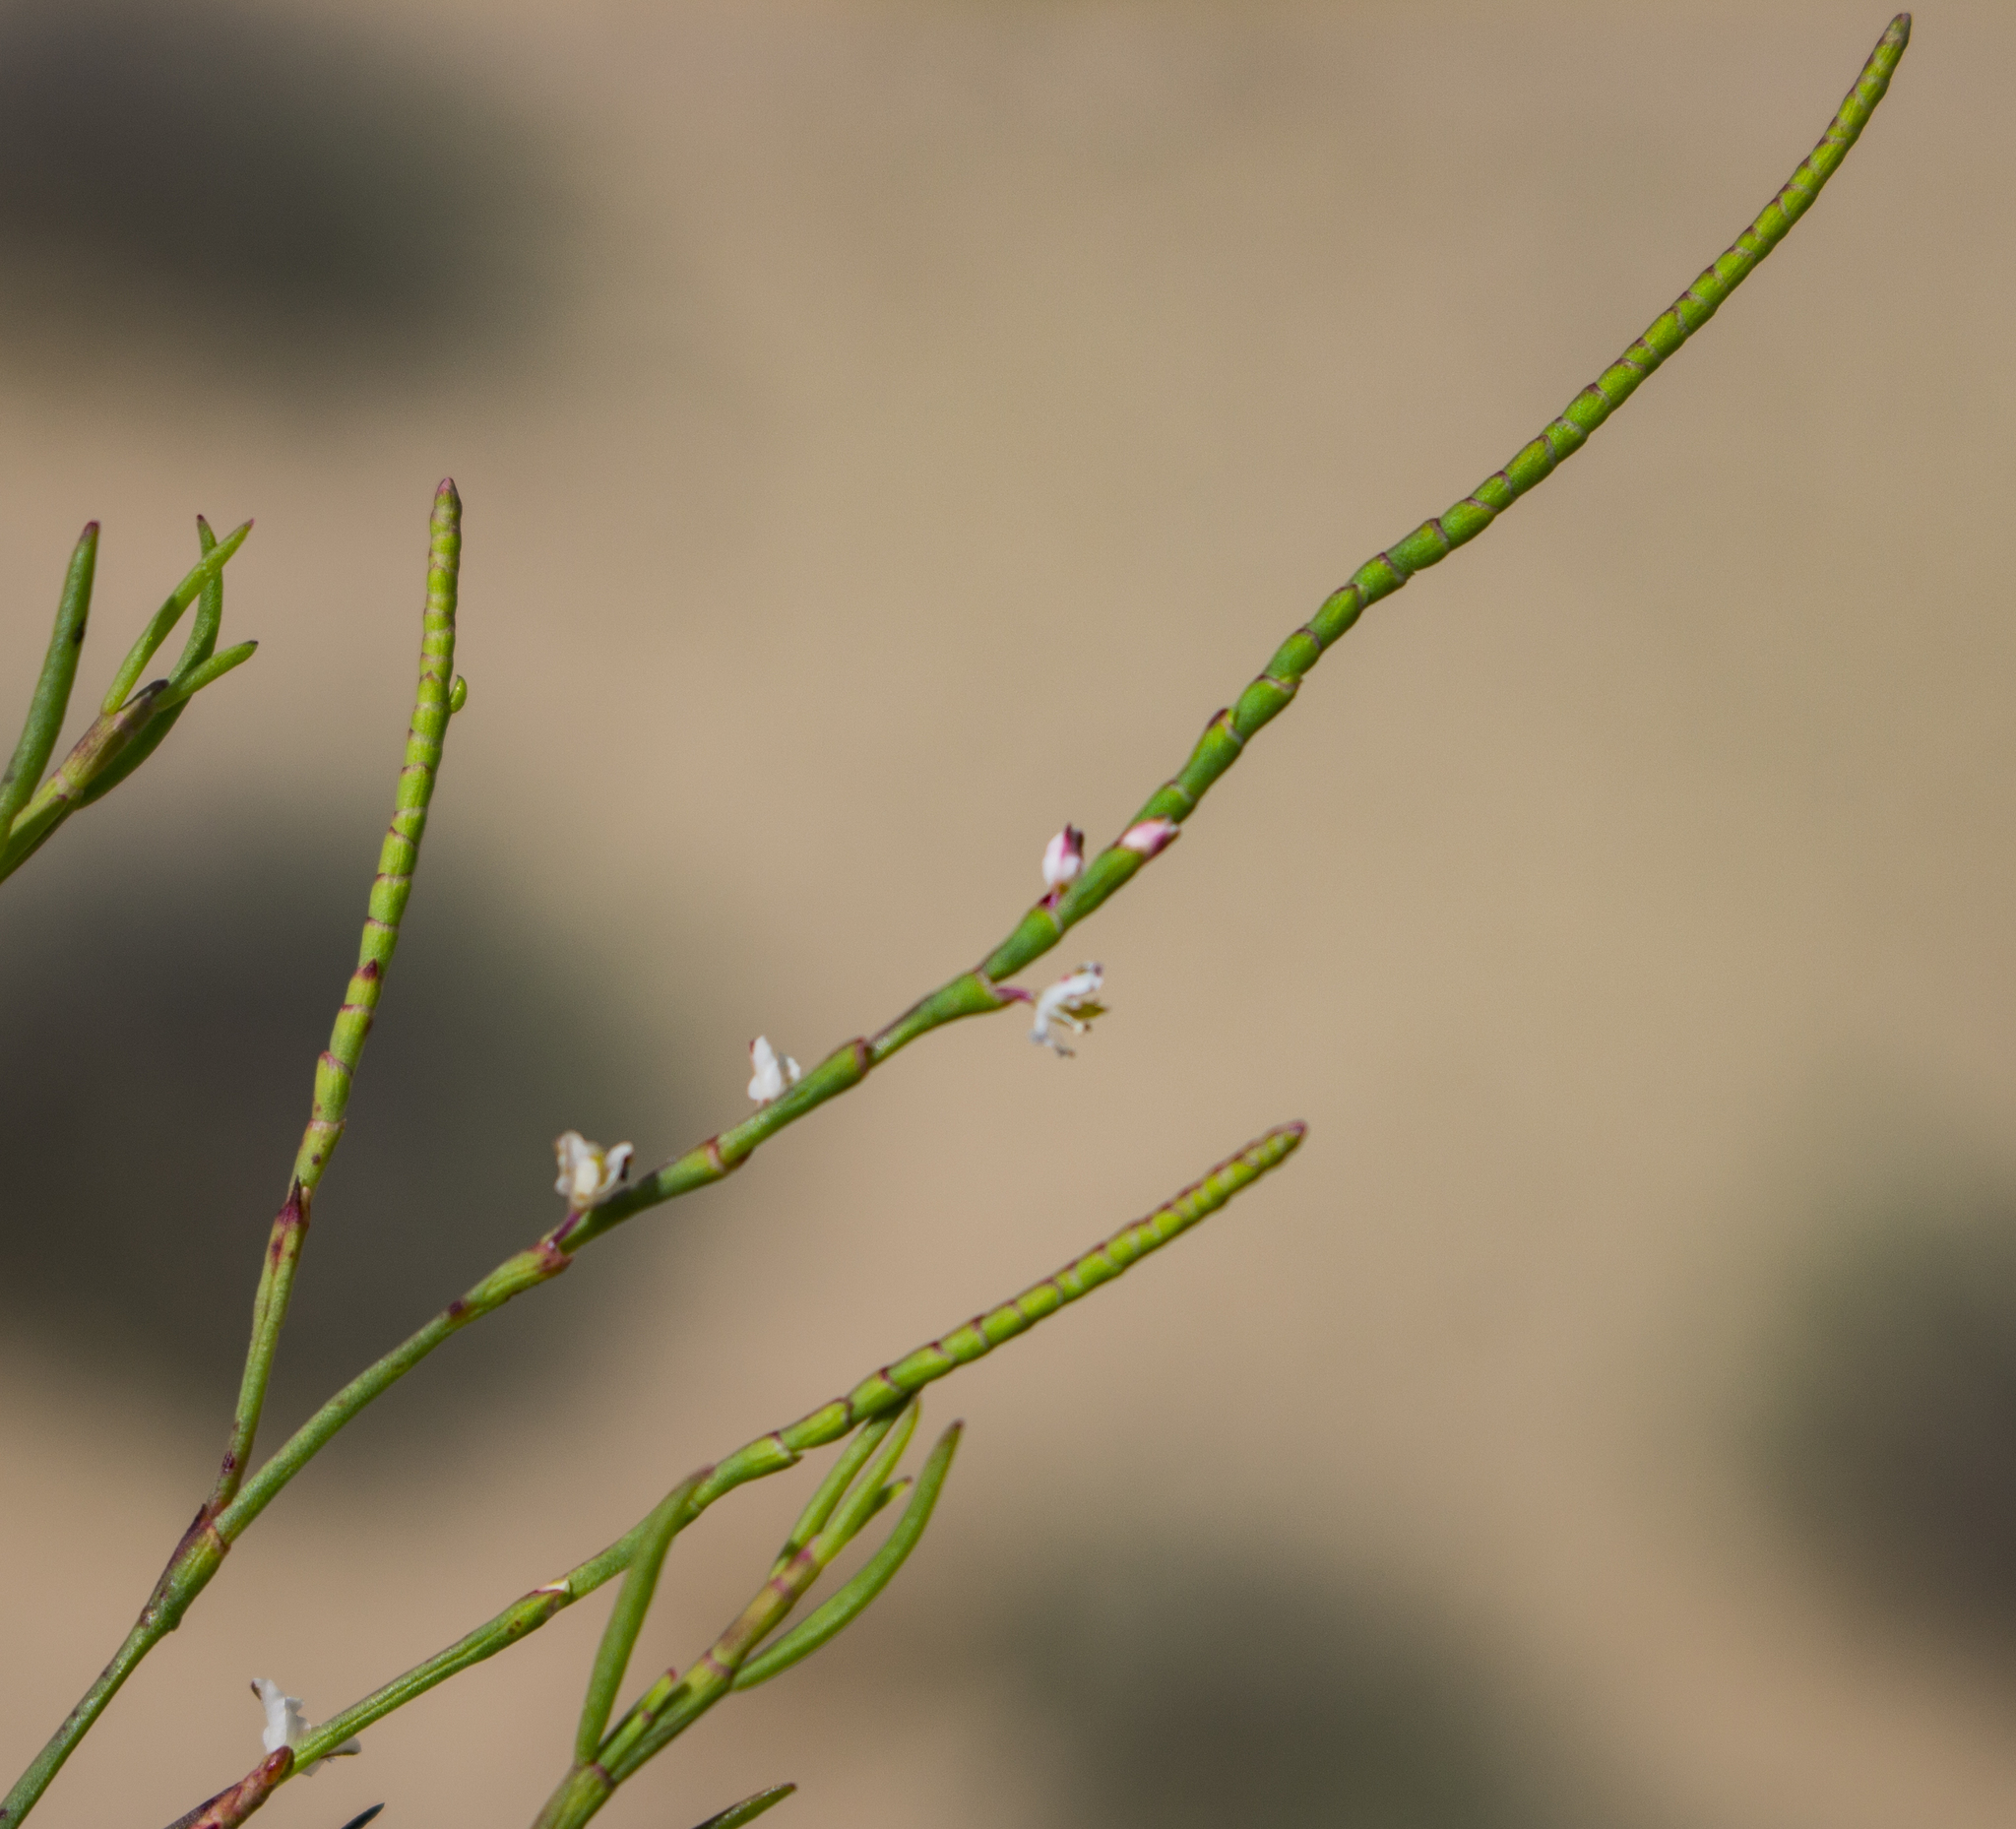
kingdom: Plantae
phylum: Tracheophyta
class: Magnoliopsida
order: Caryophyllales
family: Polygonaceae
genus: Polygonella
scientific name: Polygonella articulata
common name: Coastal jointweed
